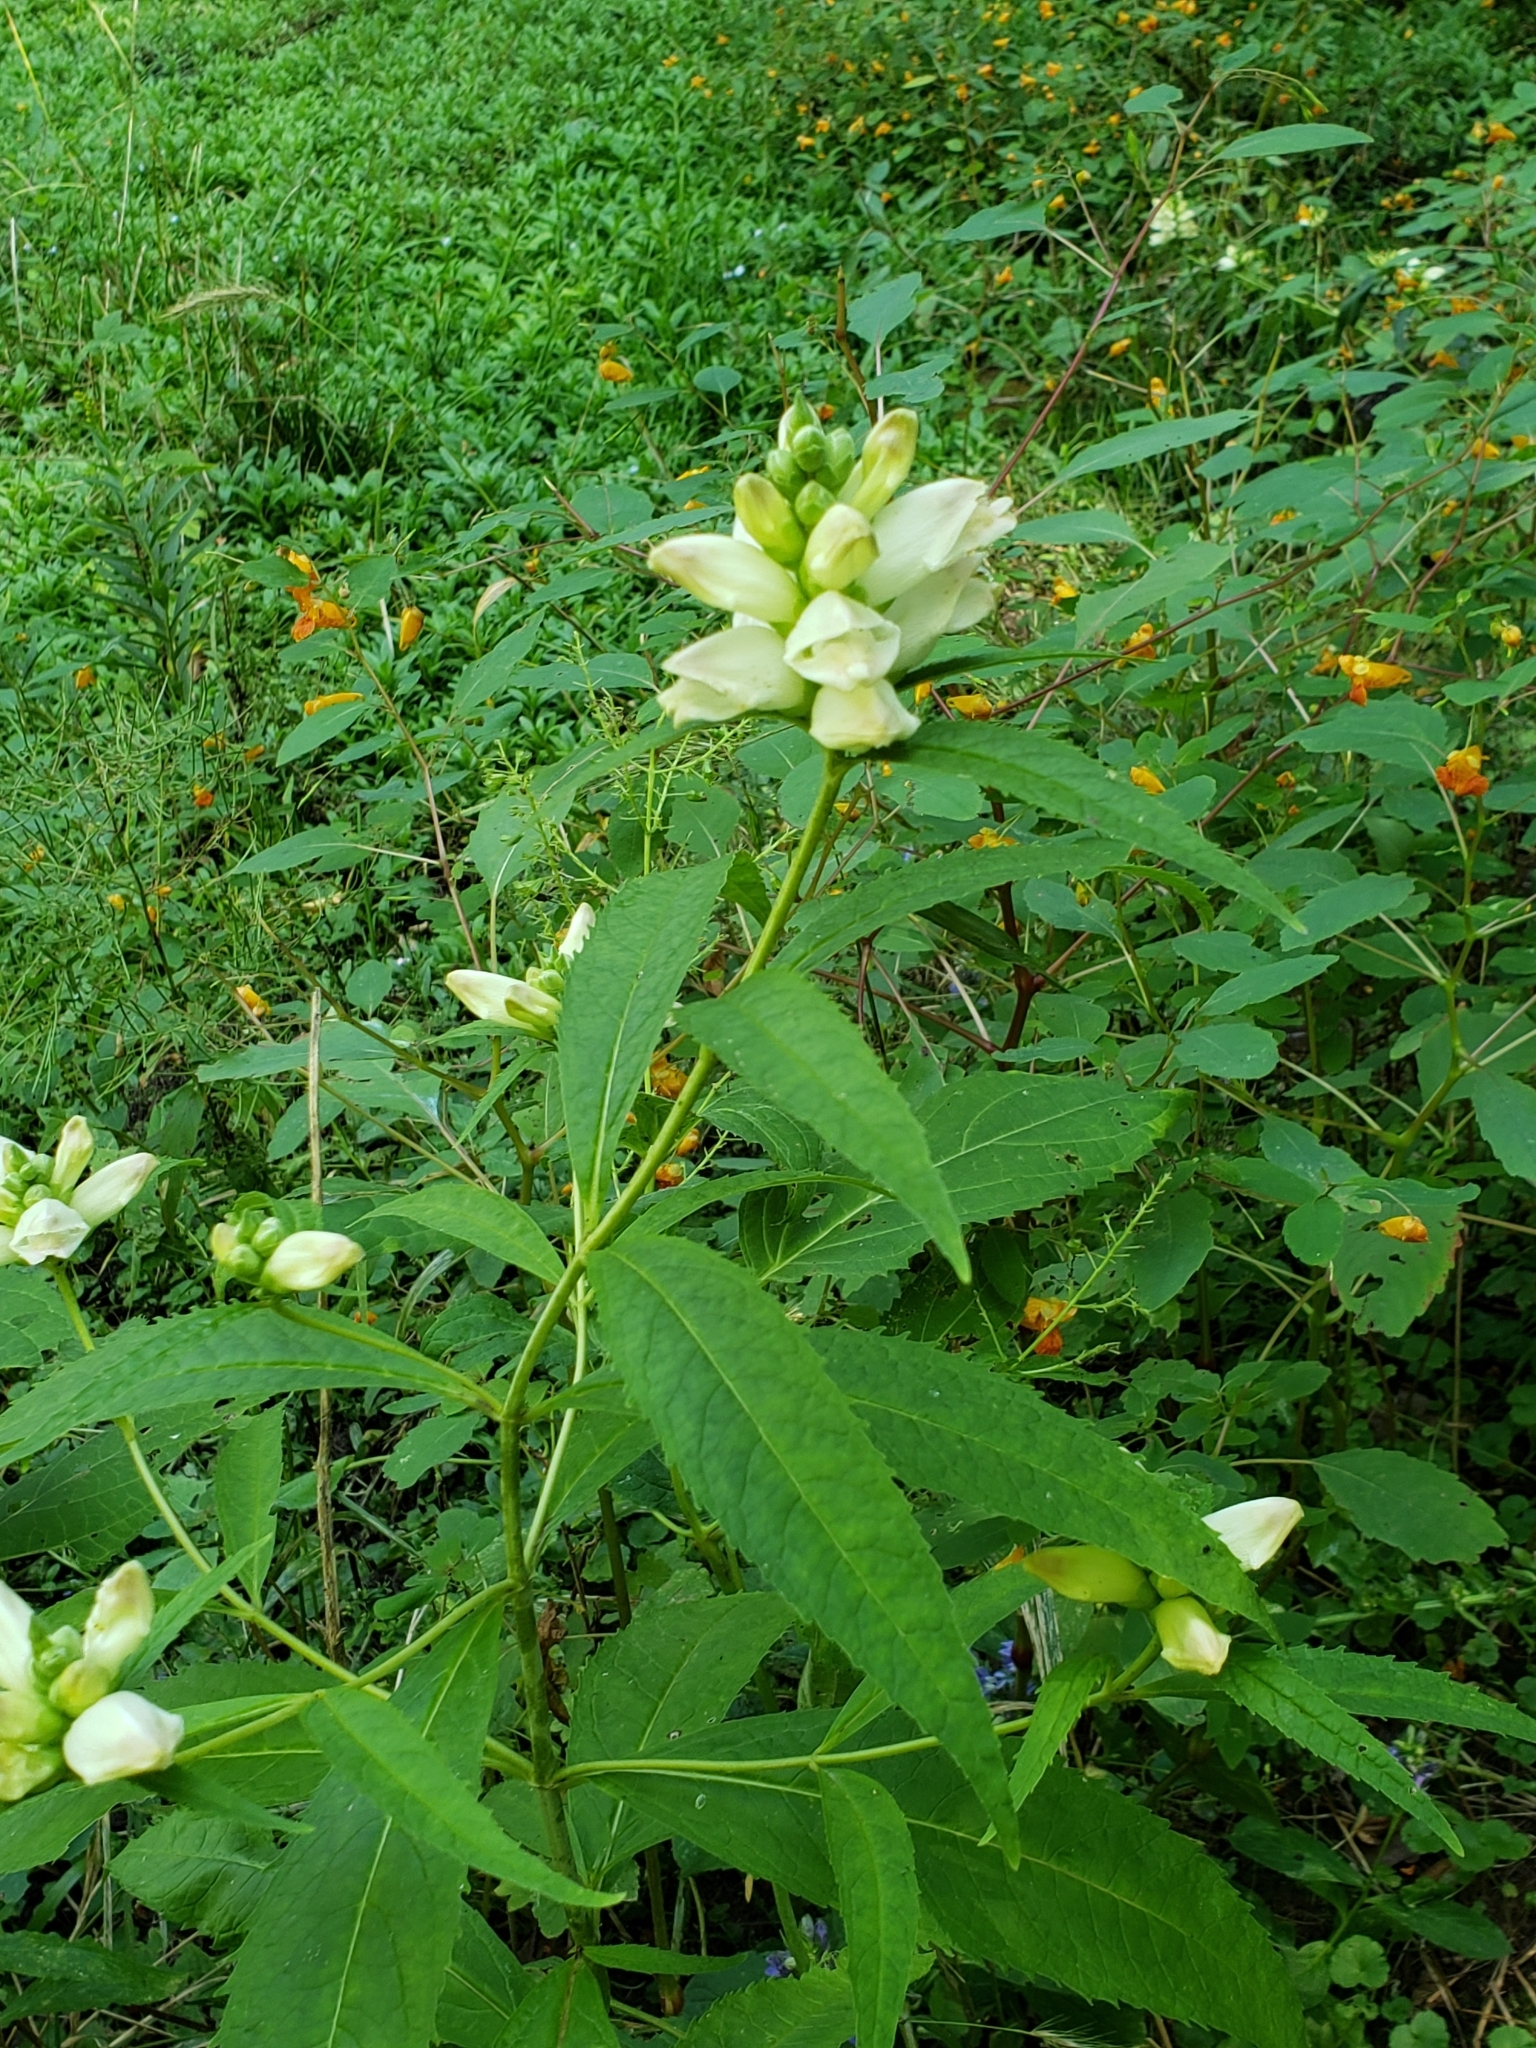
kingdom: Plantae
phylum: Tracheophyta
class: Magnoliopsida
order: Lamiales
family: Plantaginaceae
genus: Chelone
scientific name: Chelone glabra
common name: Snakehead
